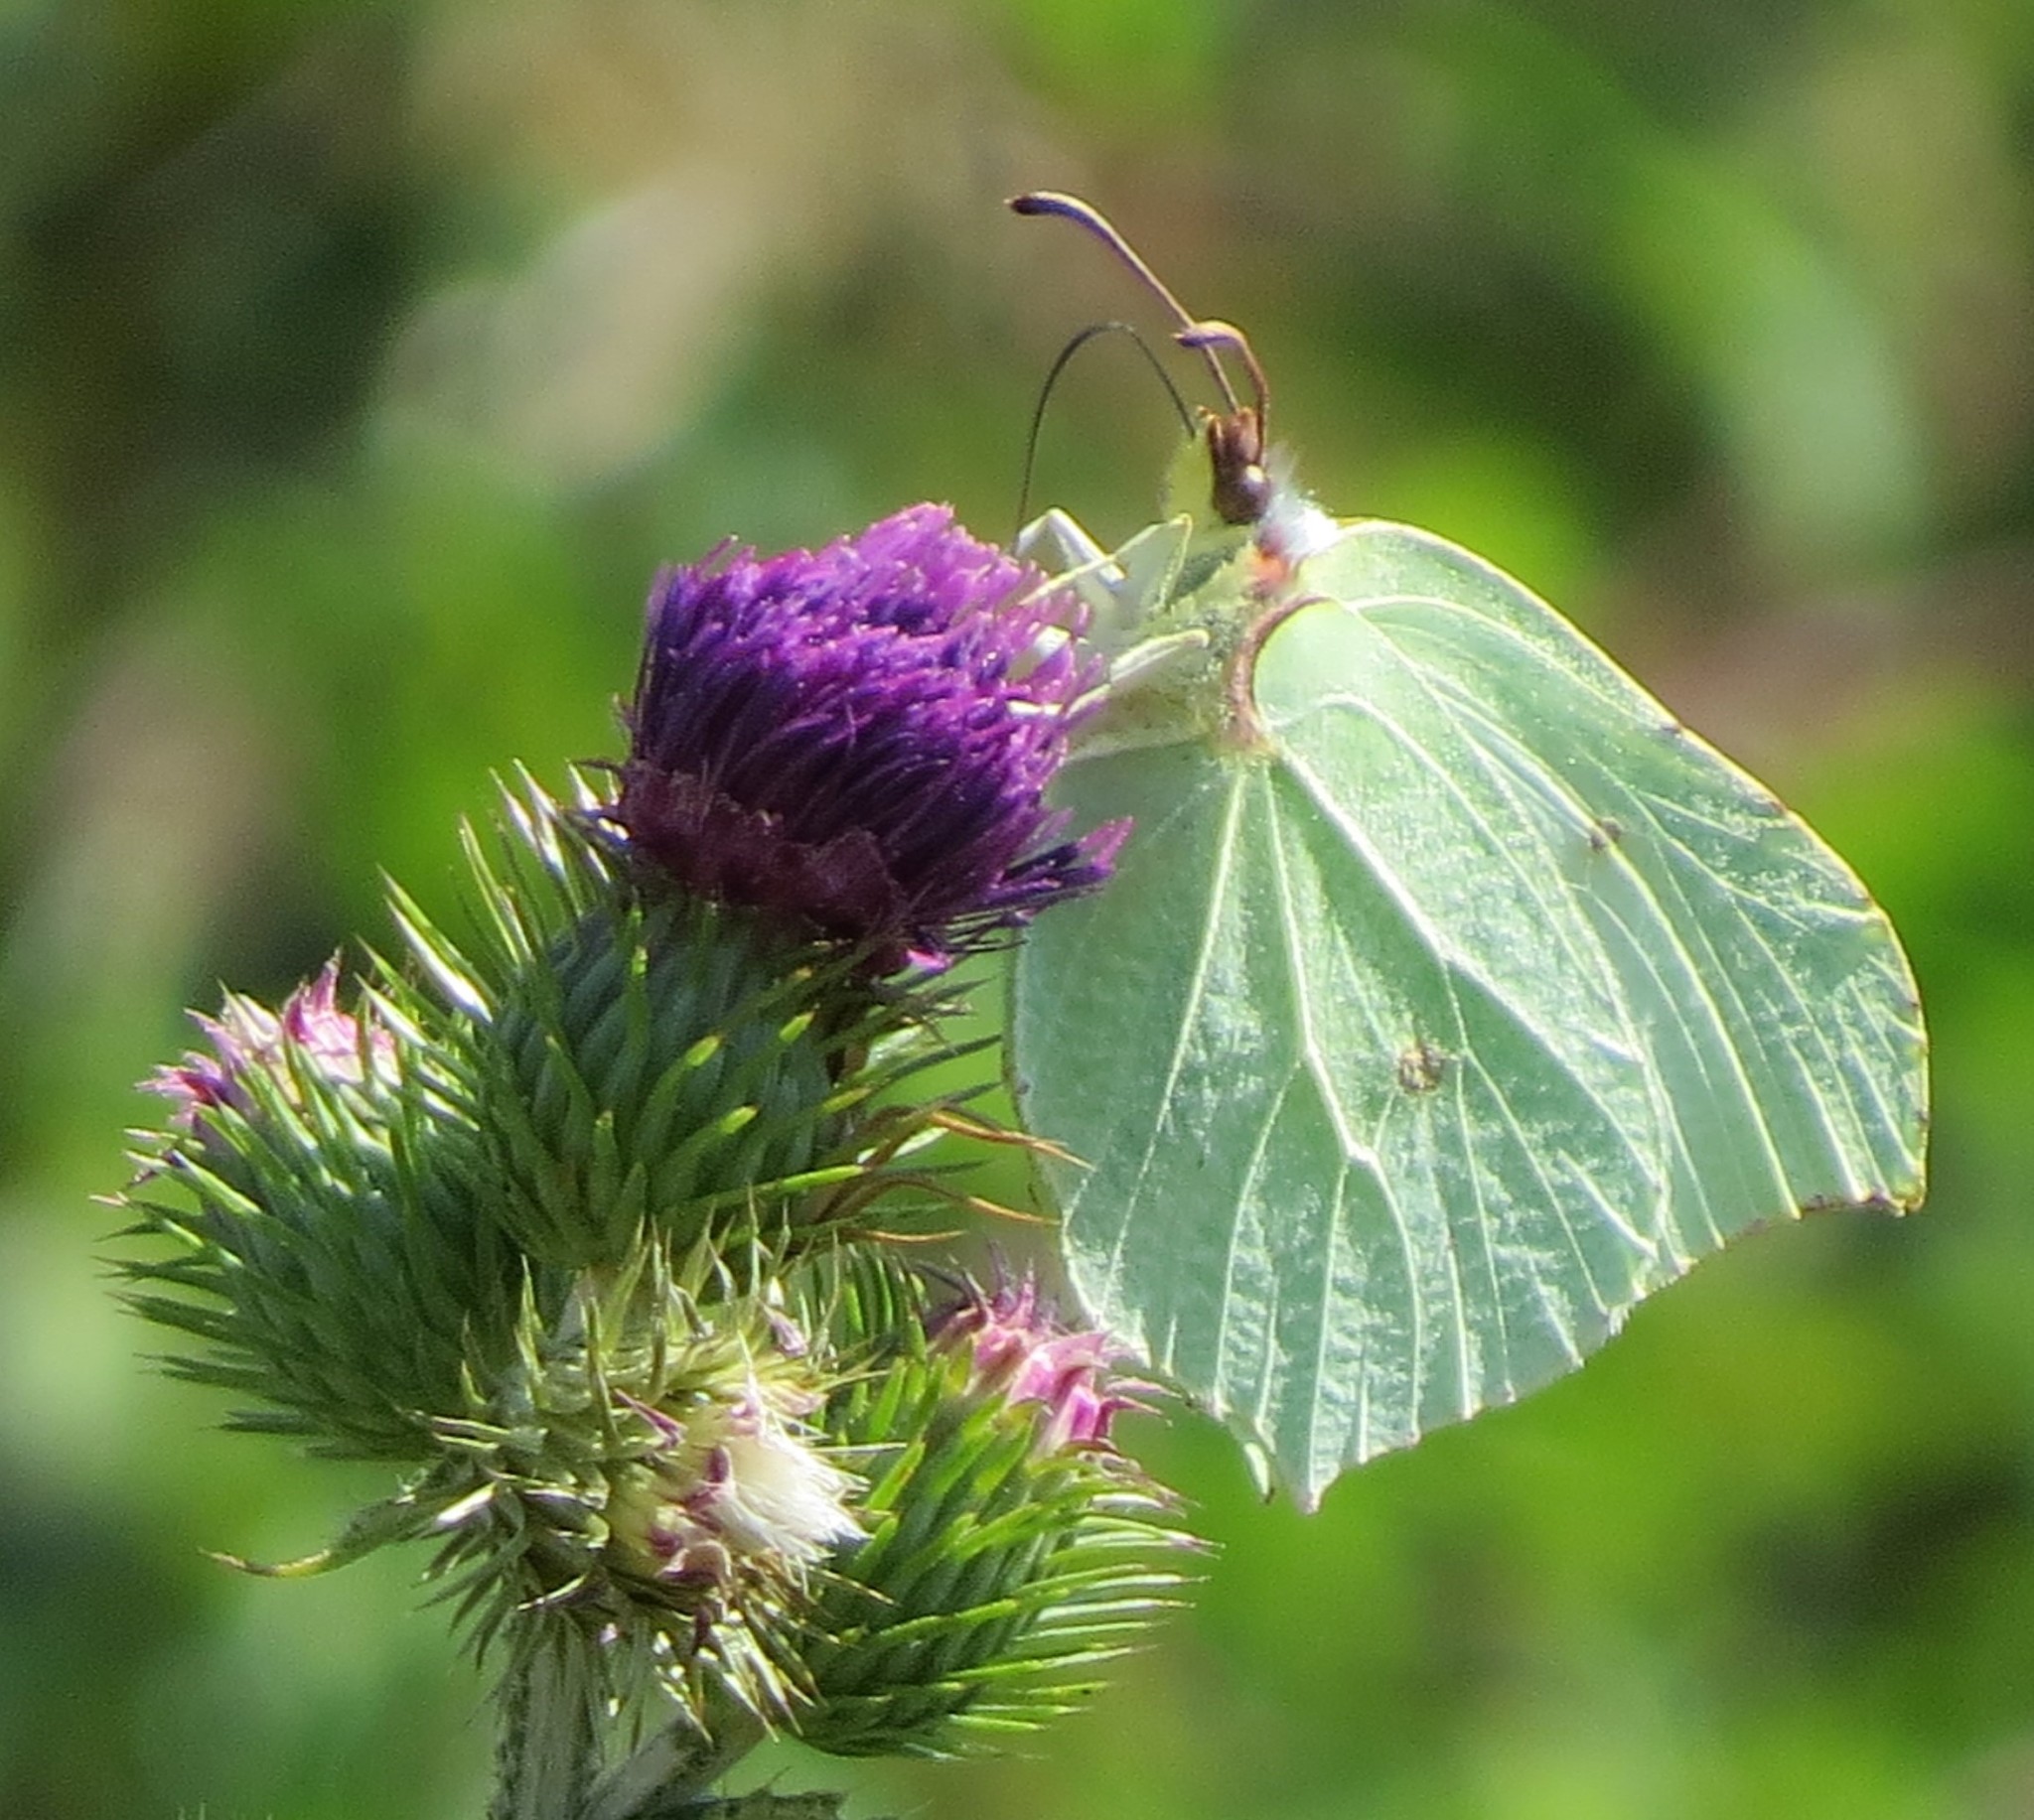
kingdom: Animalia
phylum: Arthropoda
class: Insecta
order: Lepidoptera
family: Pieridae
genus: Gonepteryx
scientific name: Gonepteryx rhamni
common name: Brimstone
